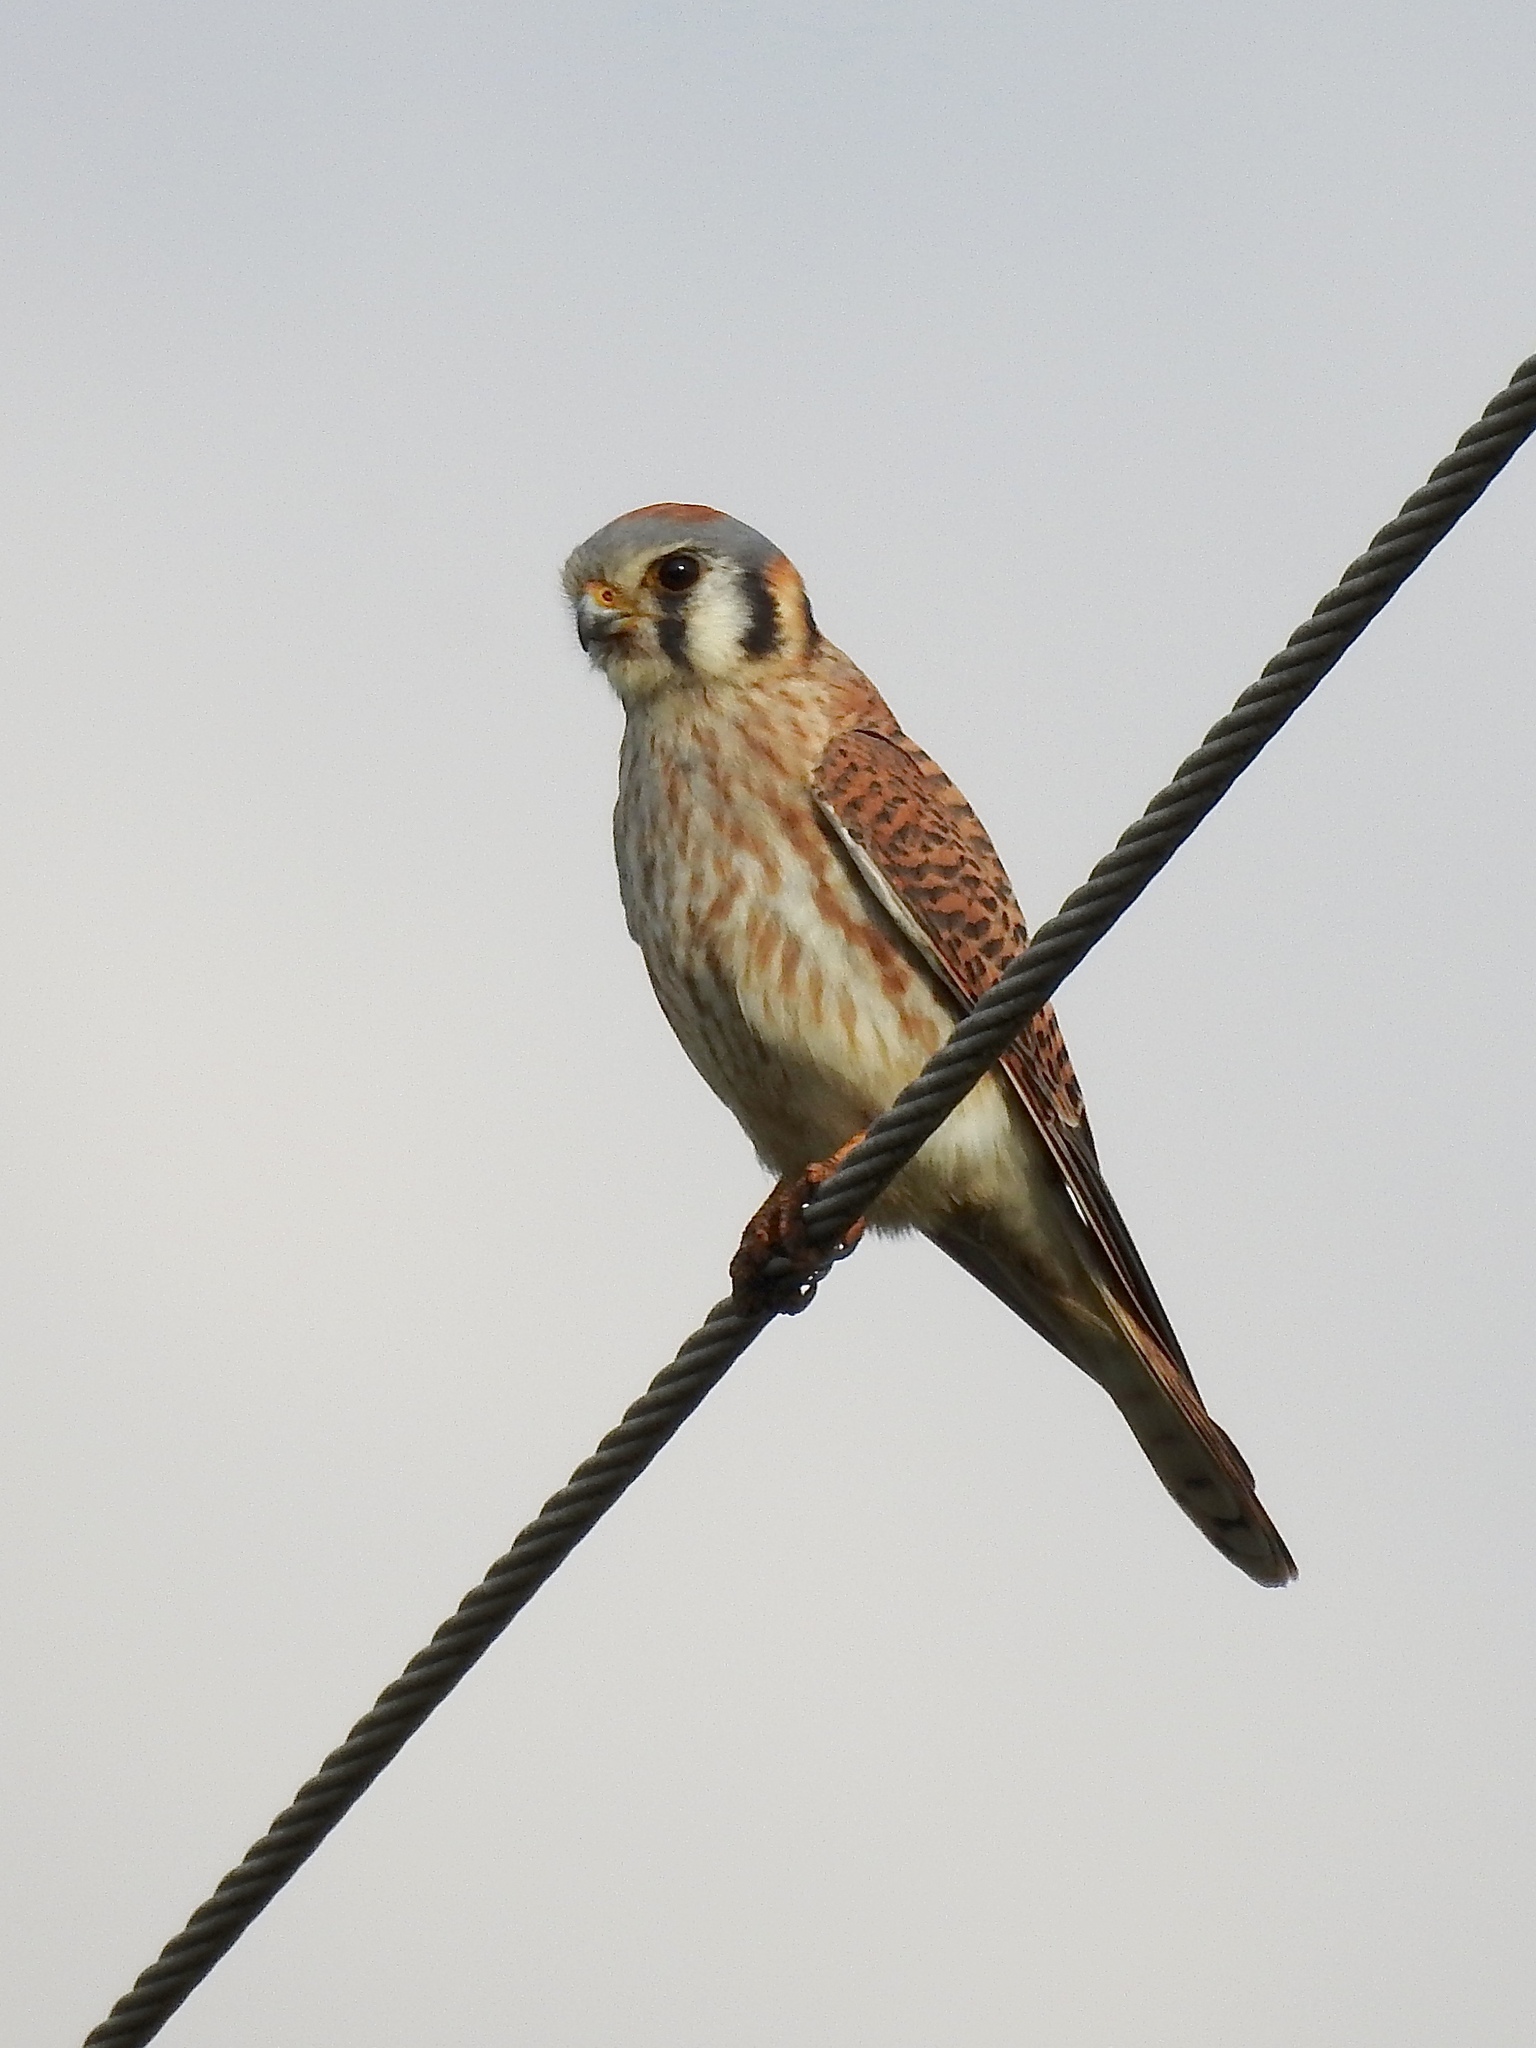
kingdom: Animalia
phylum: Chordata
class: Aves
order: Falconiformes
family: Falconidae
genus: Falco
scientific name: Falco sparverius
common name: American kestrel
